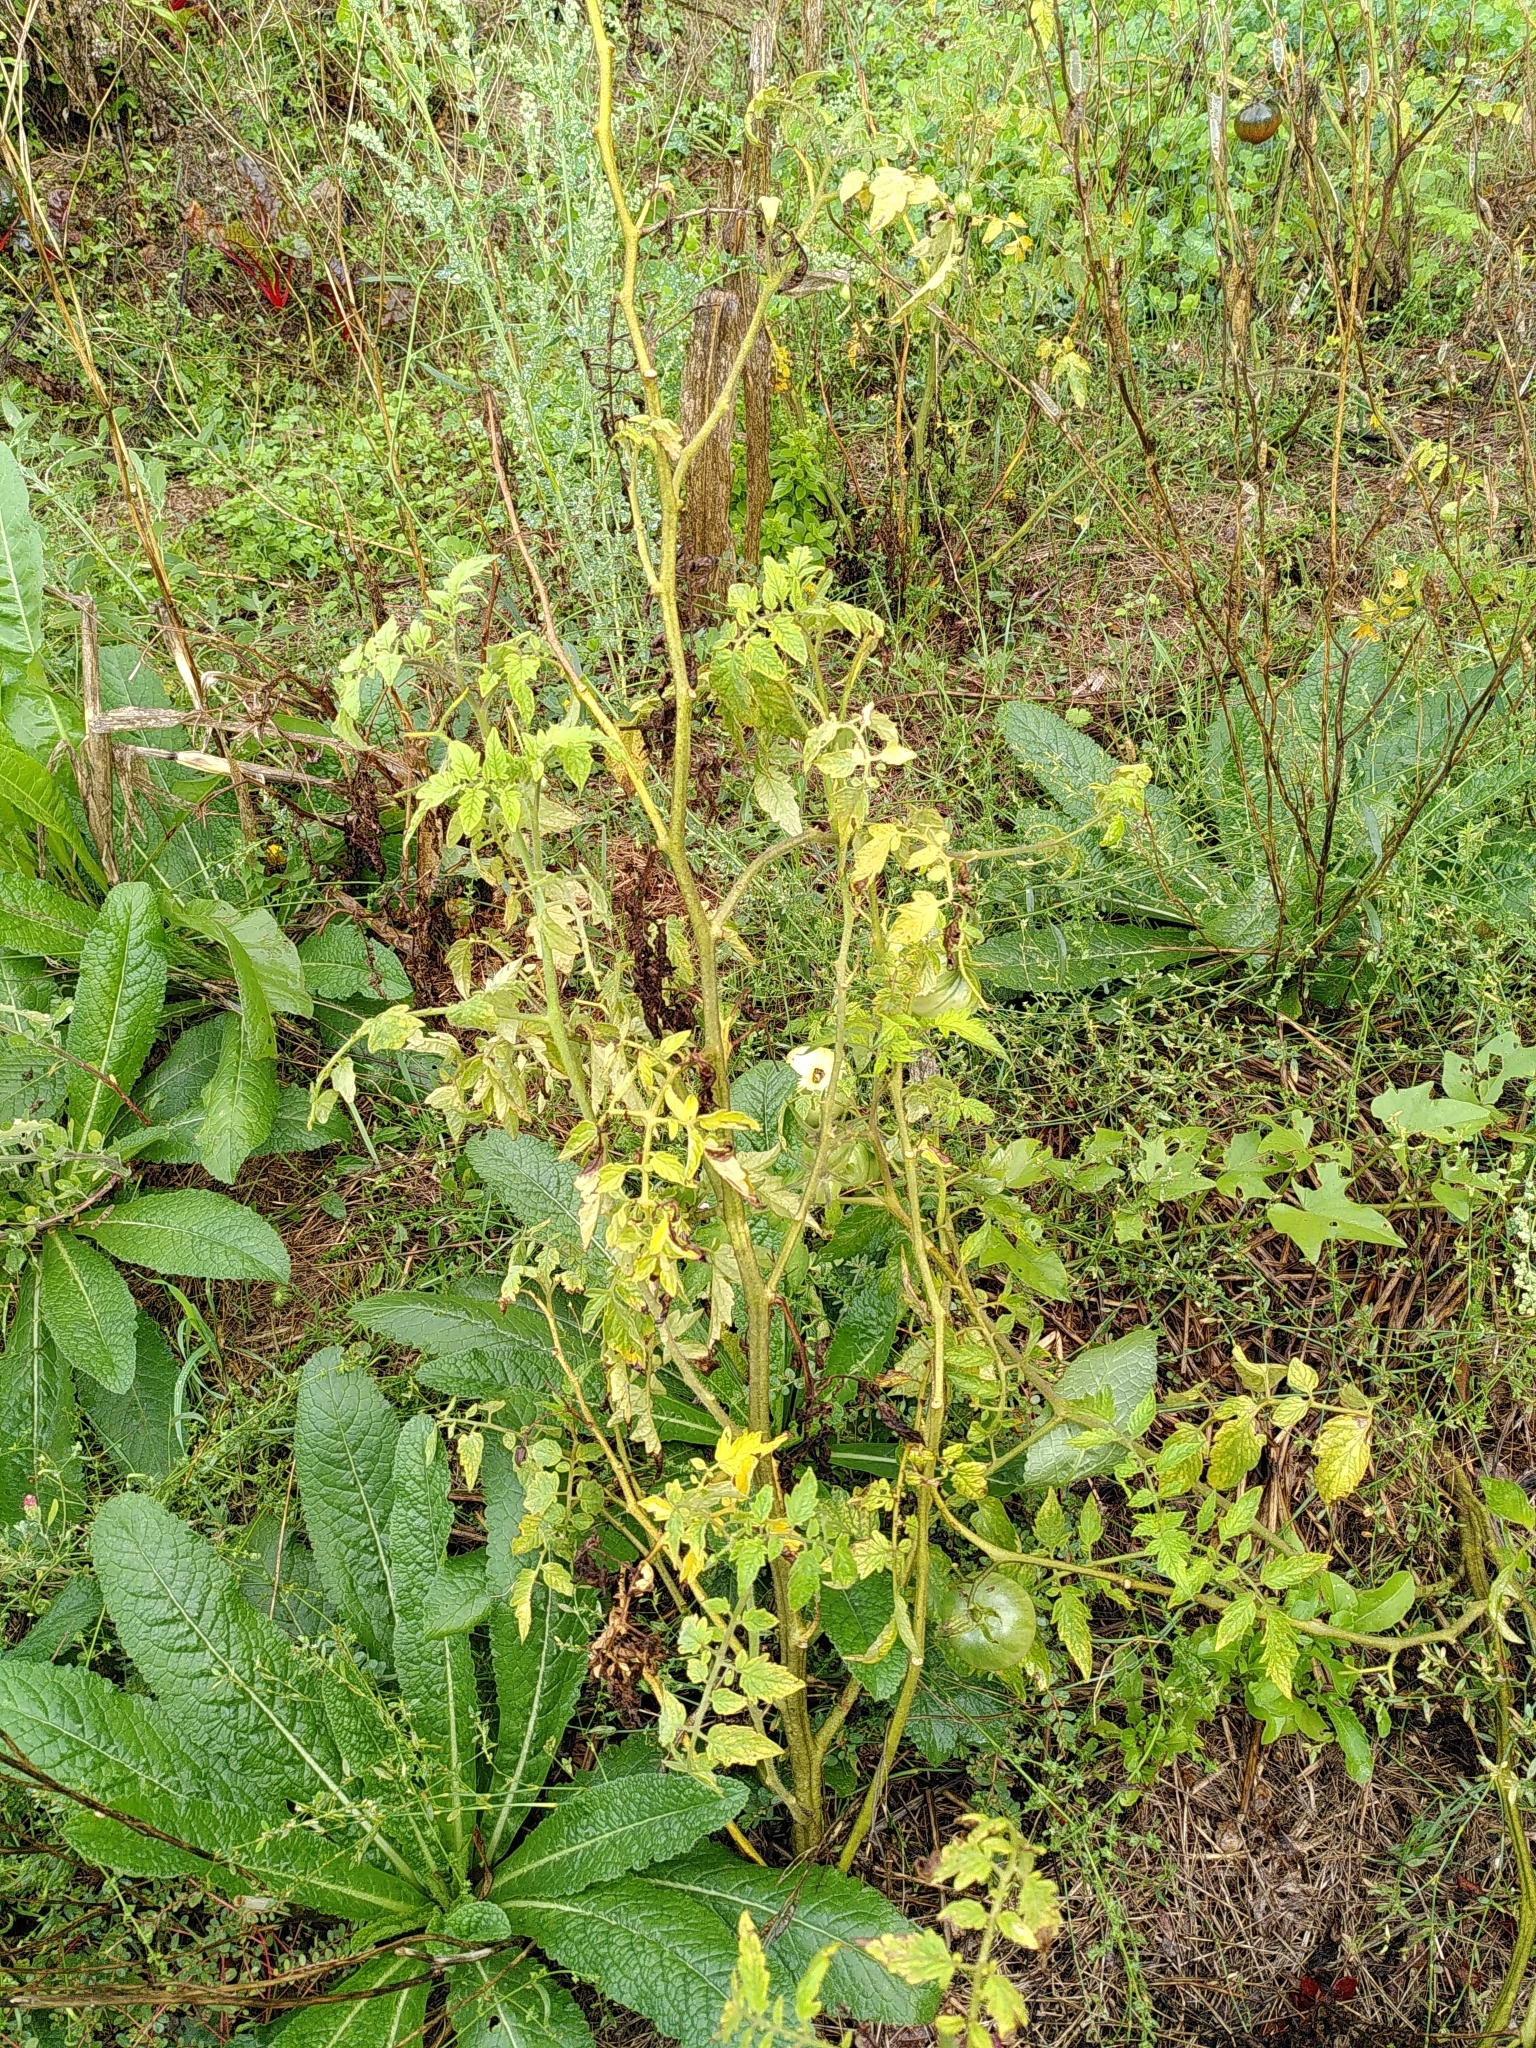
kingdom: Plantae
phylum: Tracheophyta
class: Magnoliopsida
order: Solanales
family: Solanaceae
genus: Solanum
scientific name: Solanum lycopersicum
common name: Garden tomato
